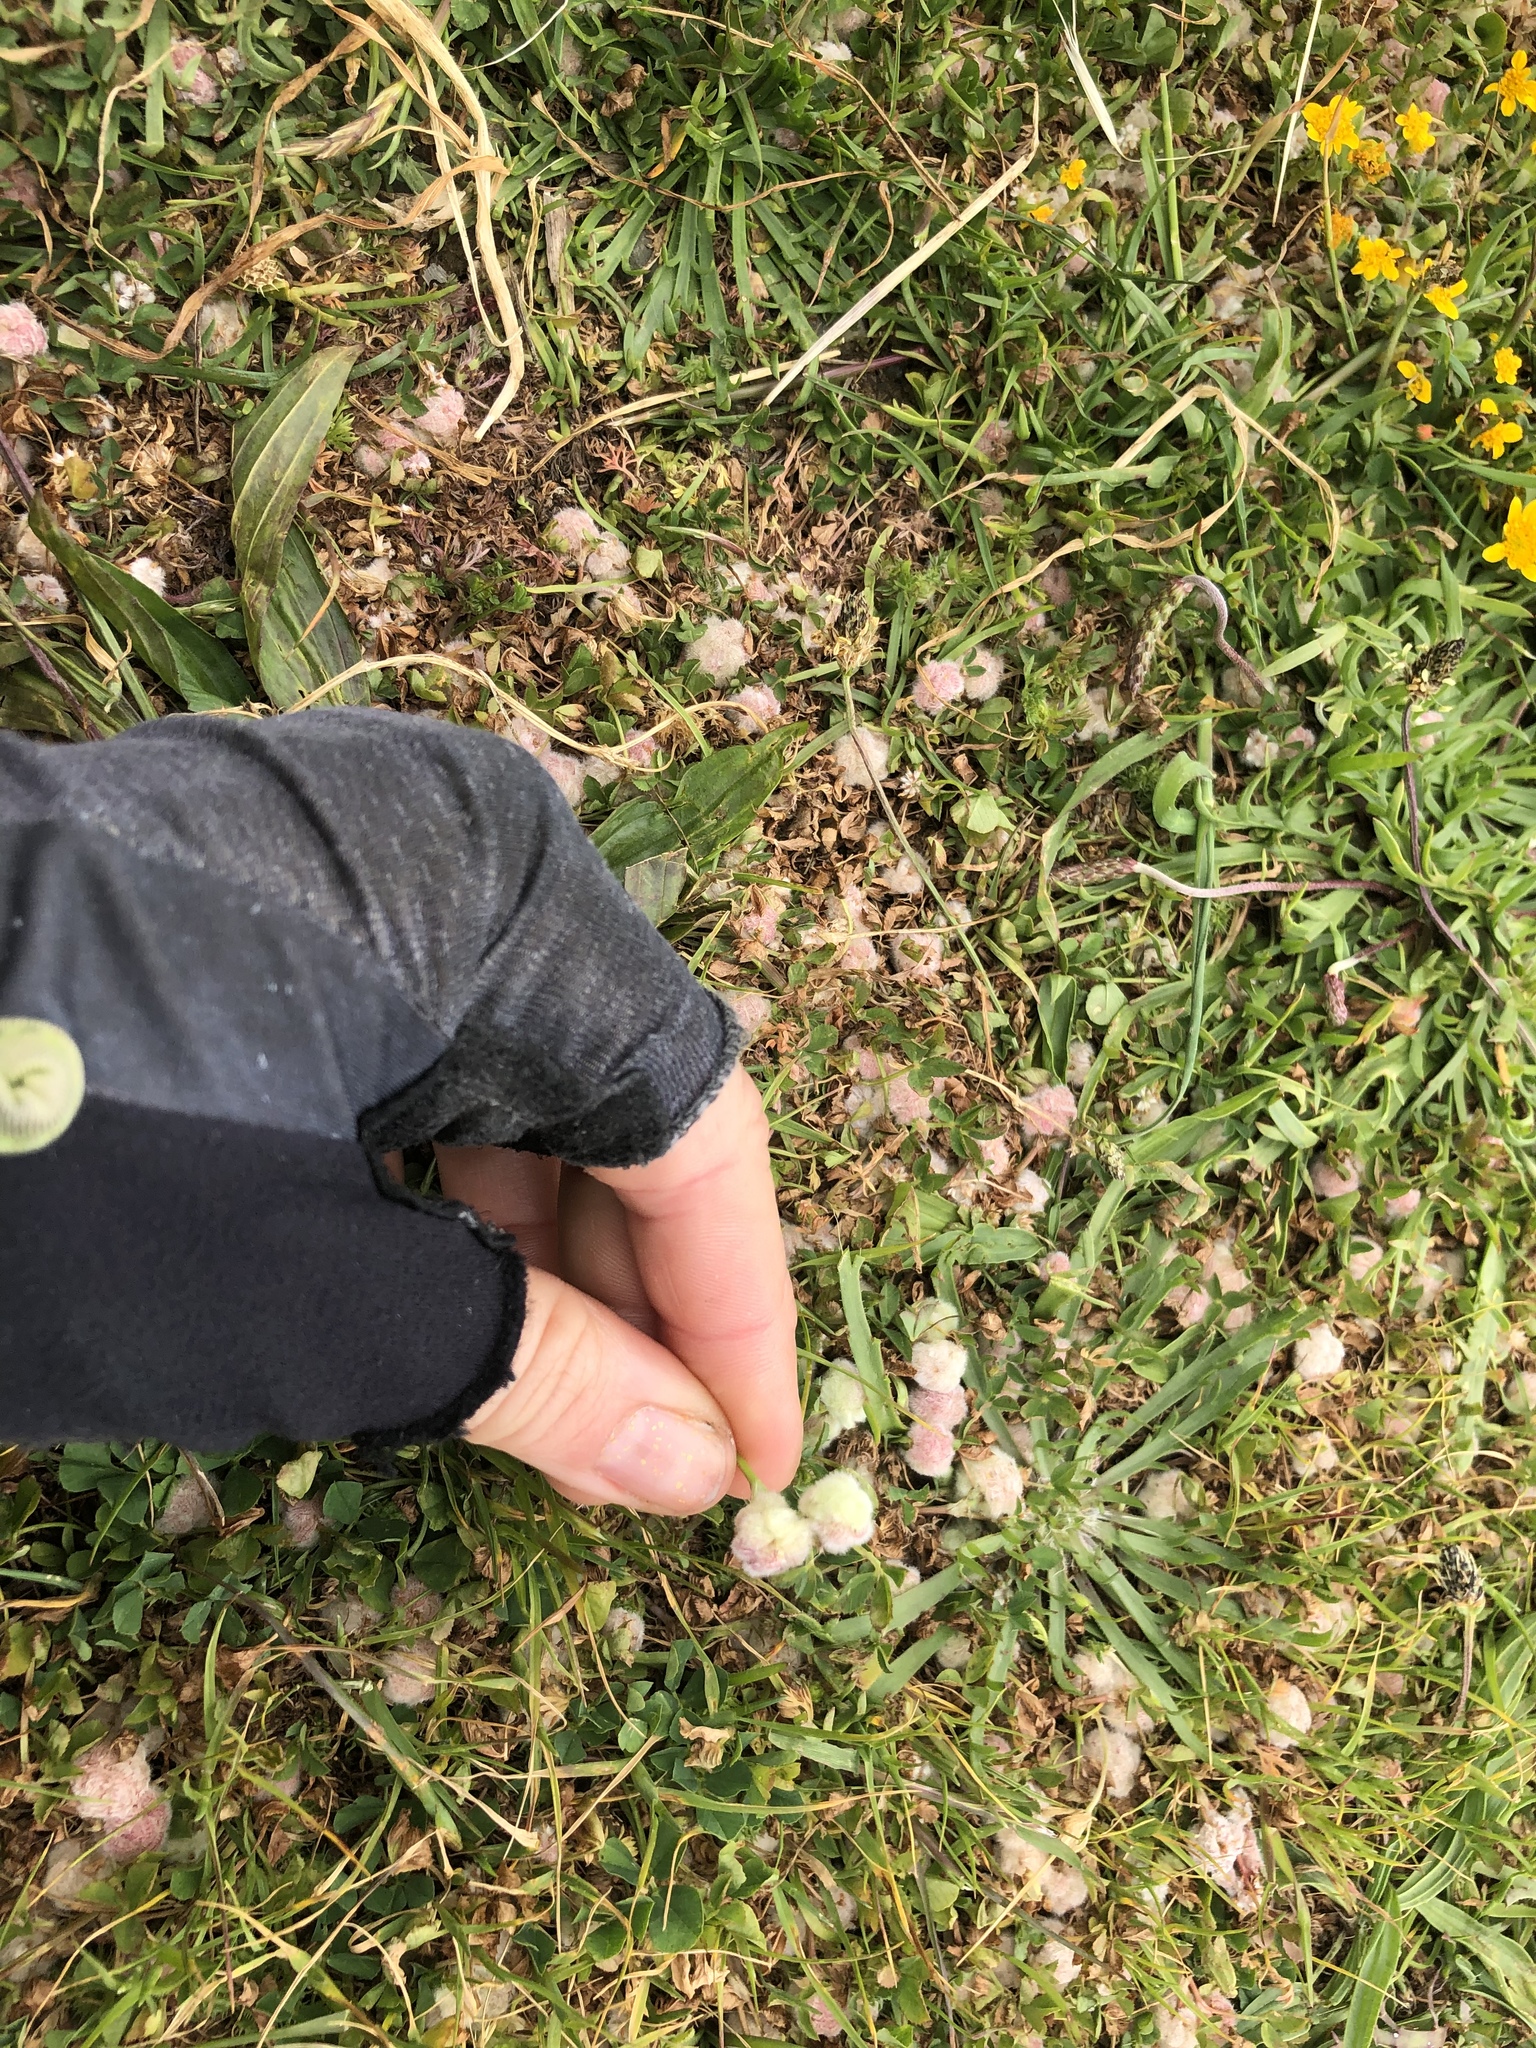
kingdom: Plantae
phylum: Tracheophyta
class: Magnoliopsida
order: Fabales
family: Fabaceae
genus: Trifolium
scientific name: Trifolium tomentosum
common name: Woolly clover
